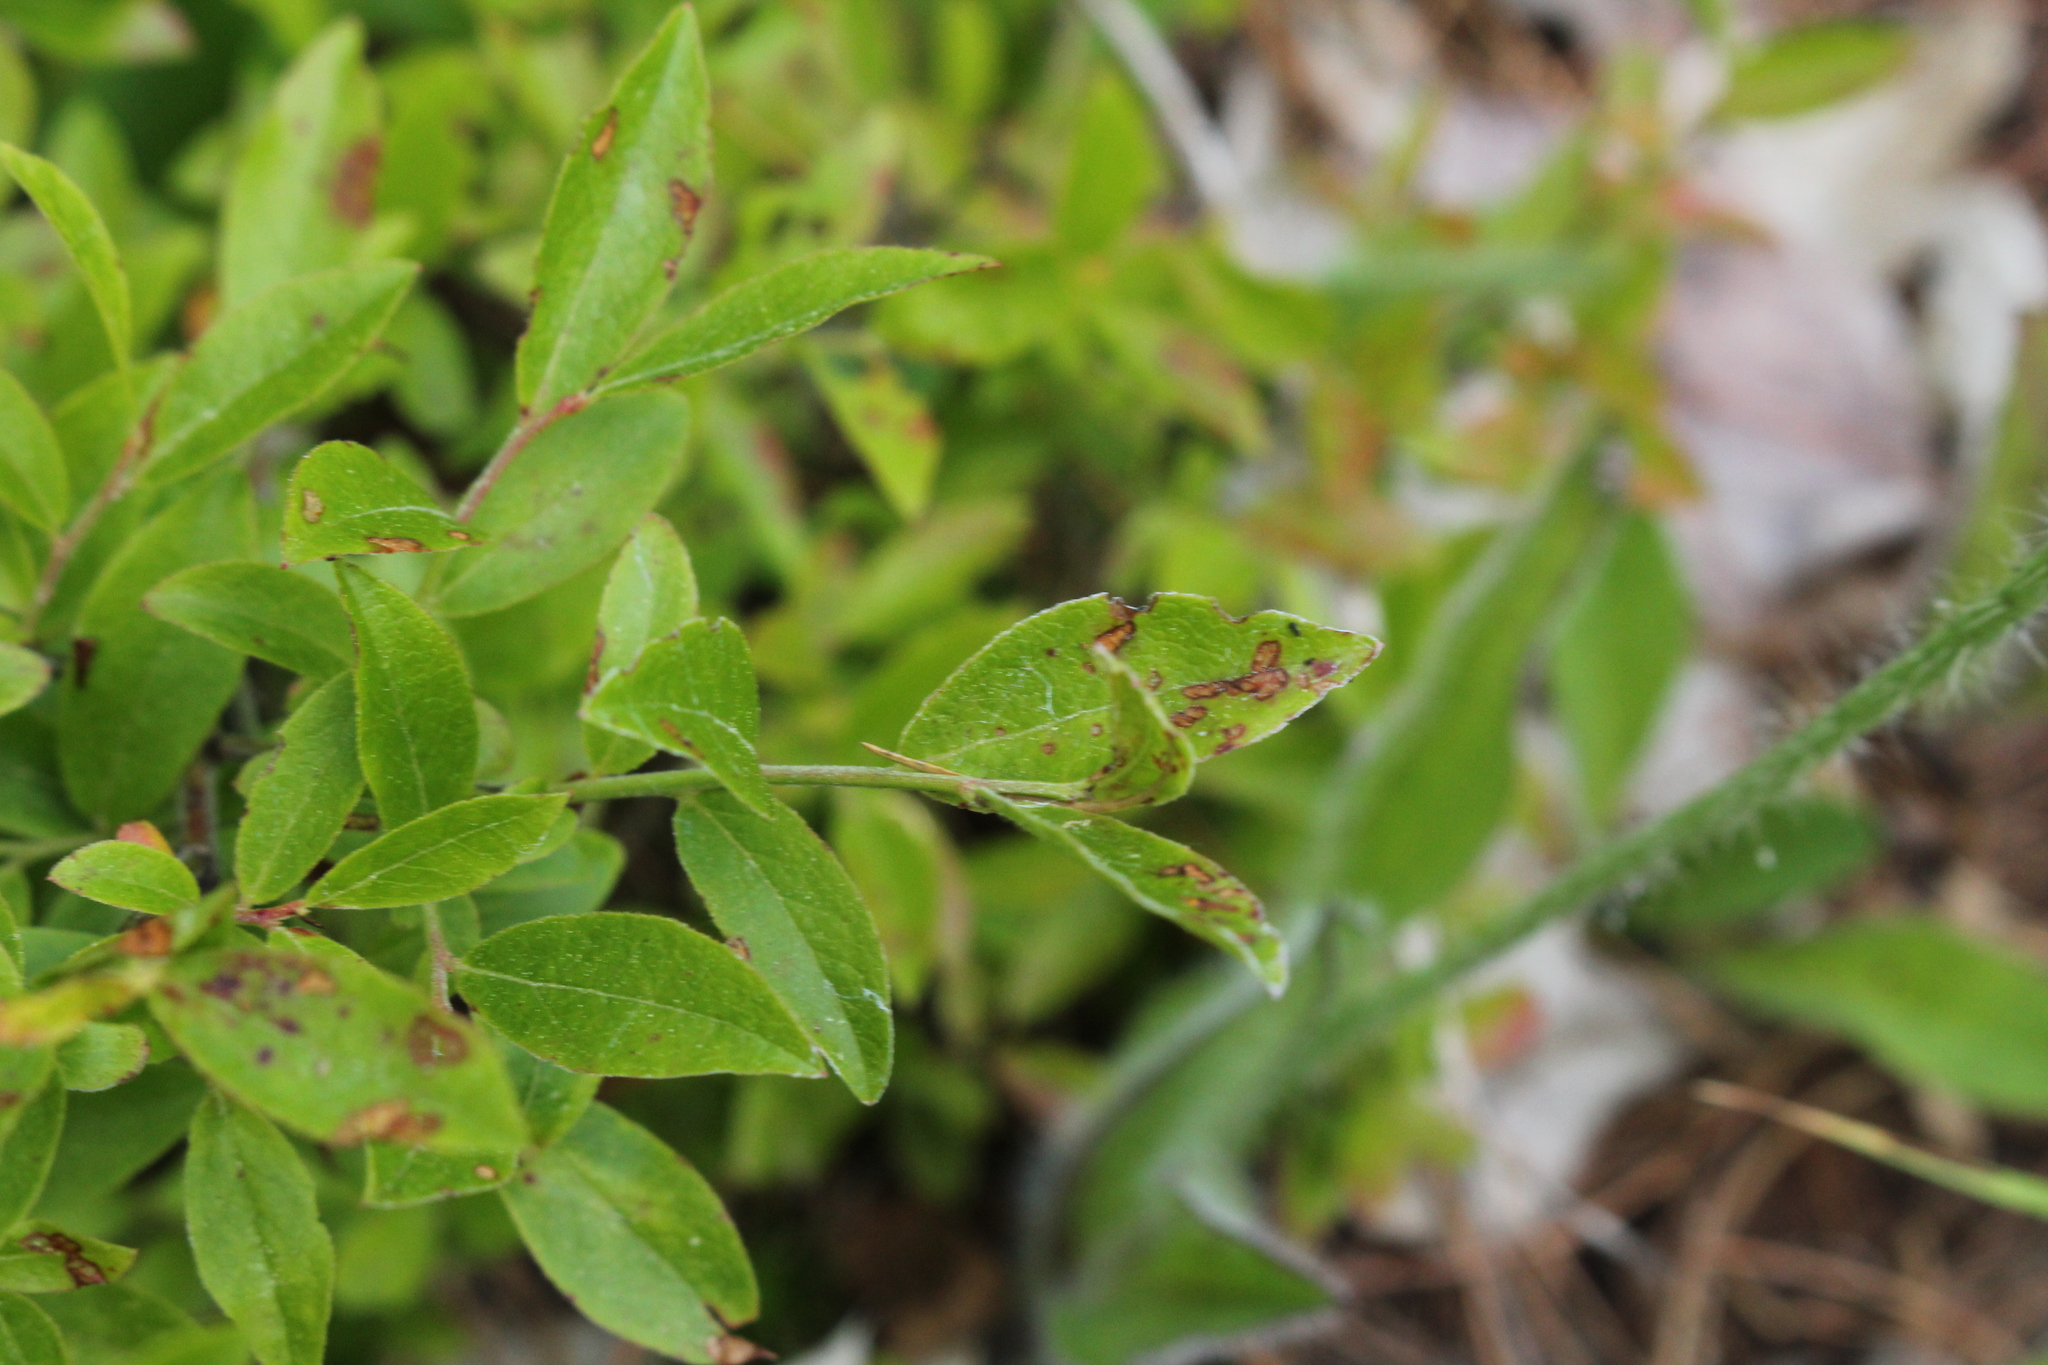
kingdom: Plantae
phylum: Tracheophyta
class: Magnoliopsida
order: Ericales
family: Ericaceae
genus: Vaccinium
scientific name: Vaccinium angustifolium
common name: Early lowbush blueberry
